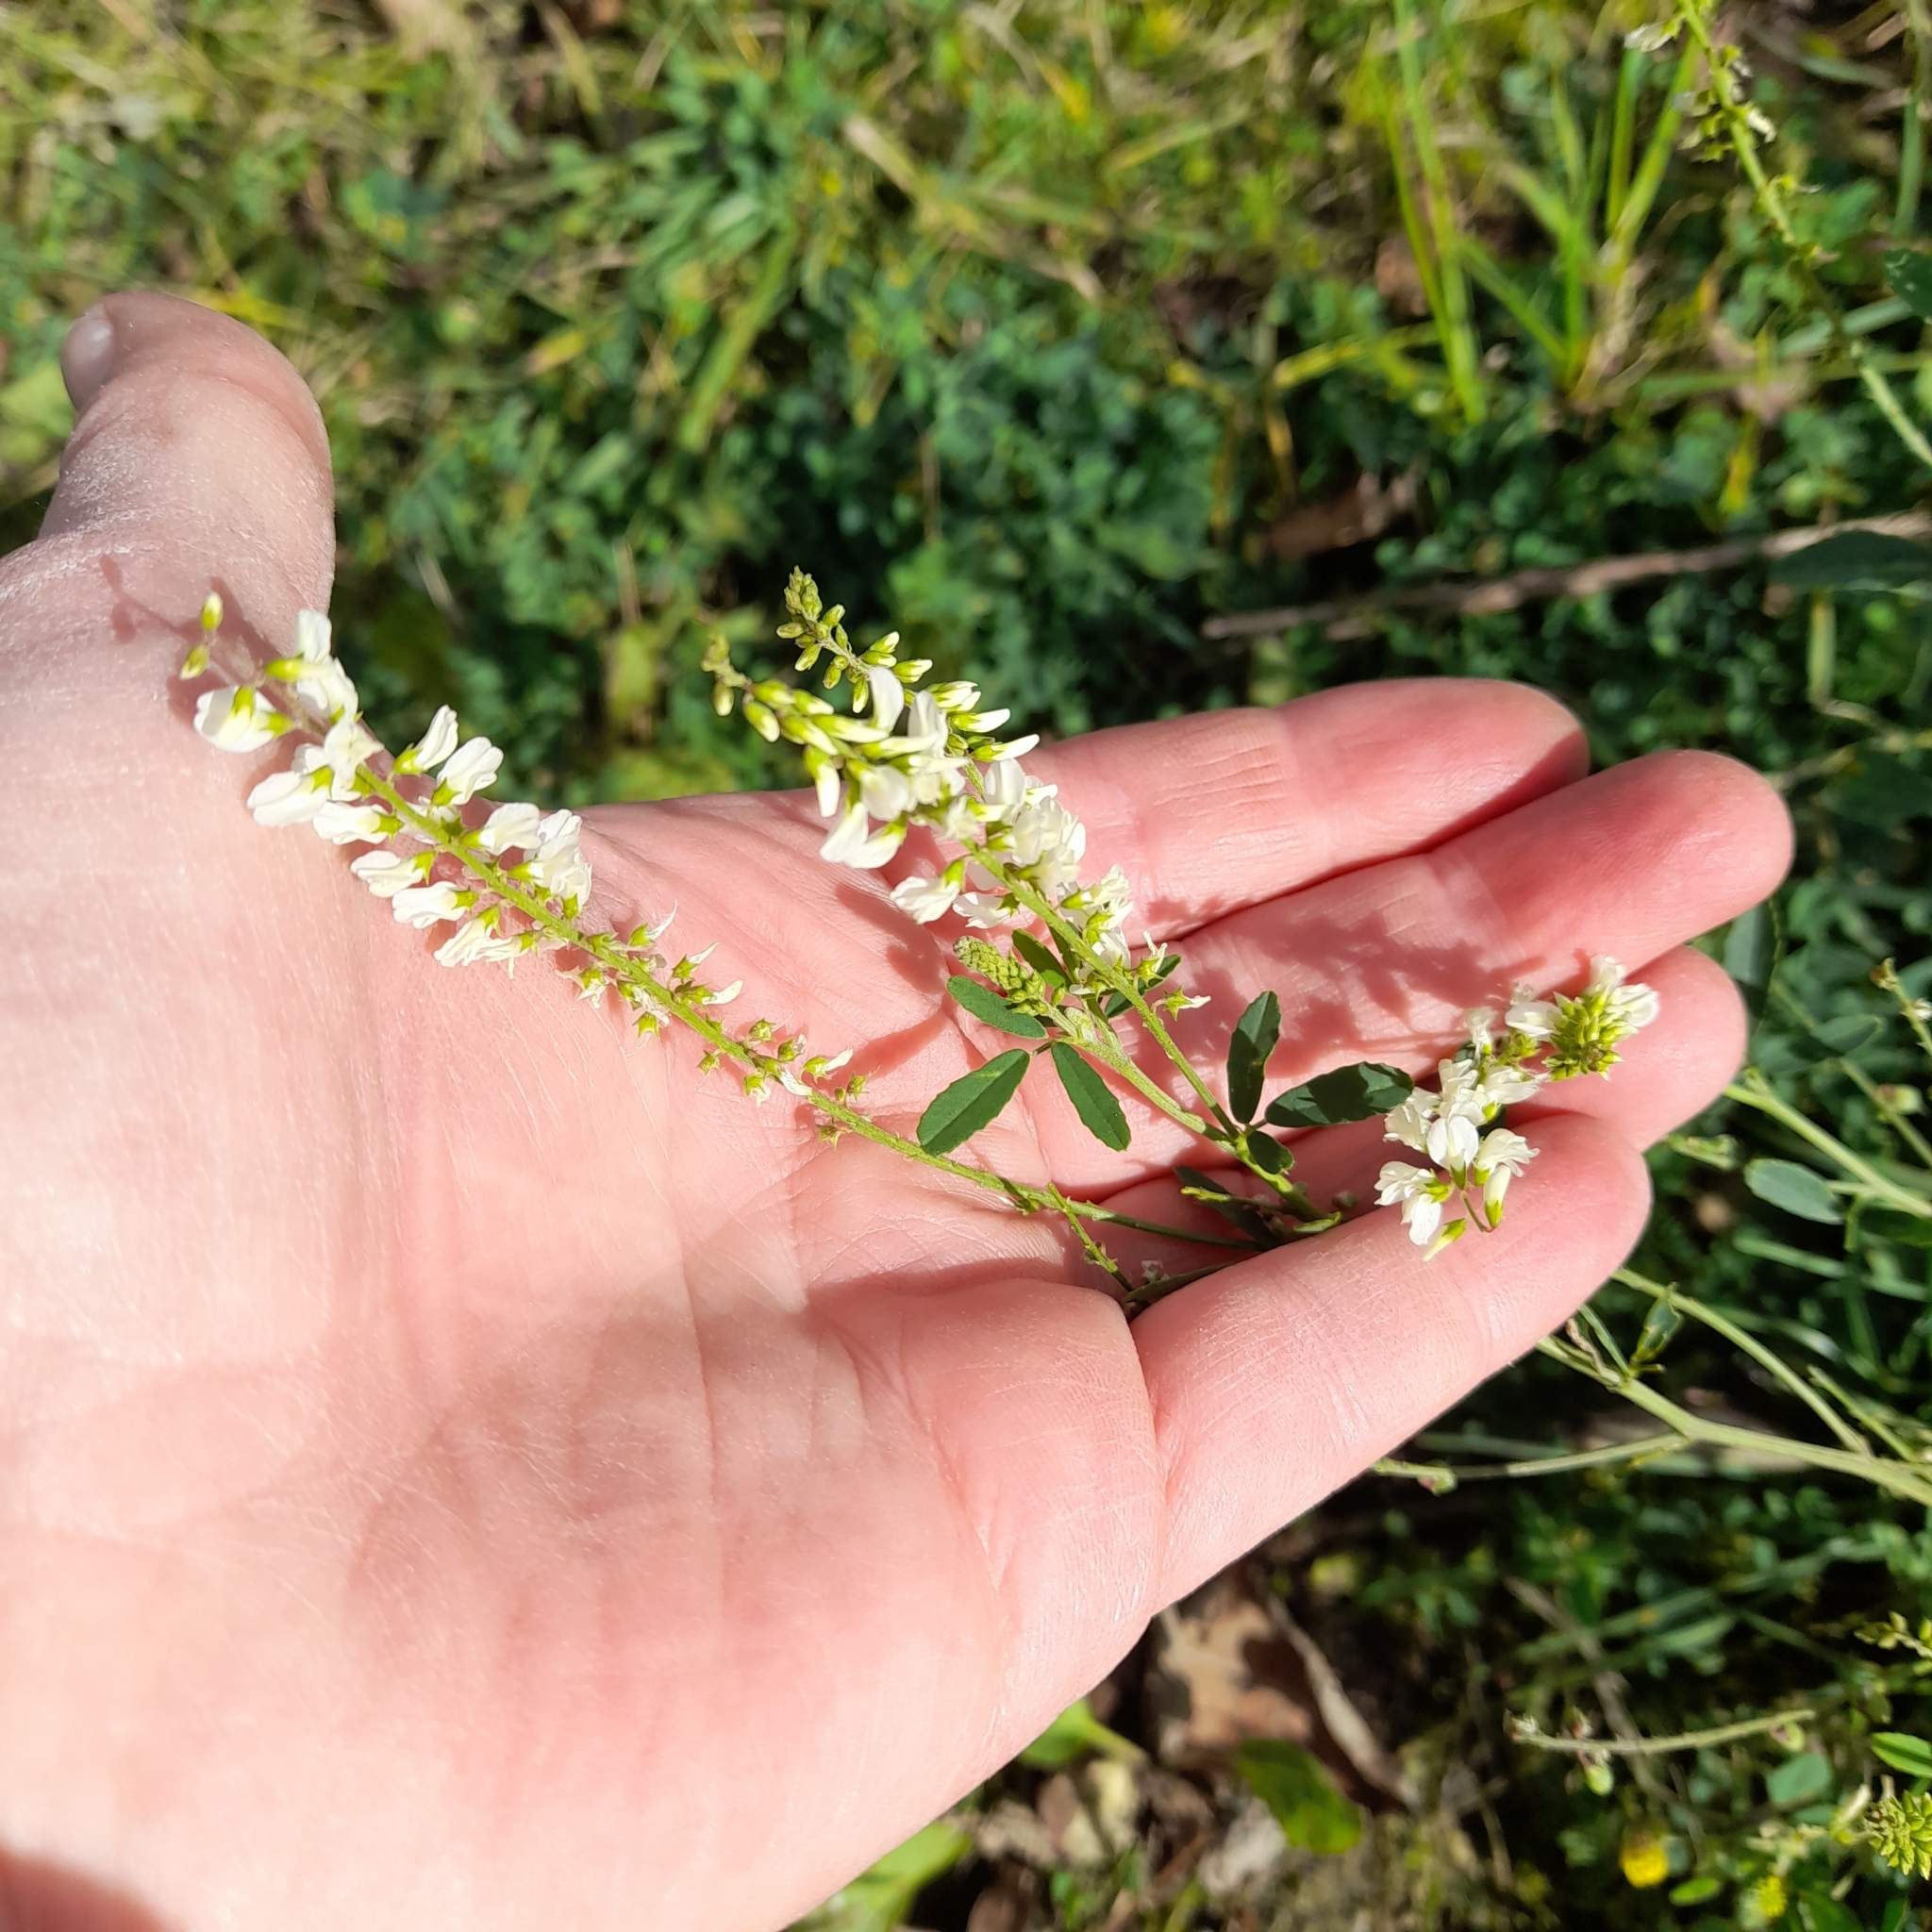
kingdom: Plantae
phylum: Tracheophyta
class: Magnoliopsida
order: Fabales
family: Fabaceae
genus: Melilotus
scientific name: Melilotus albus
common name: White melilot
